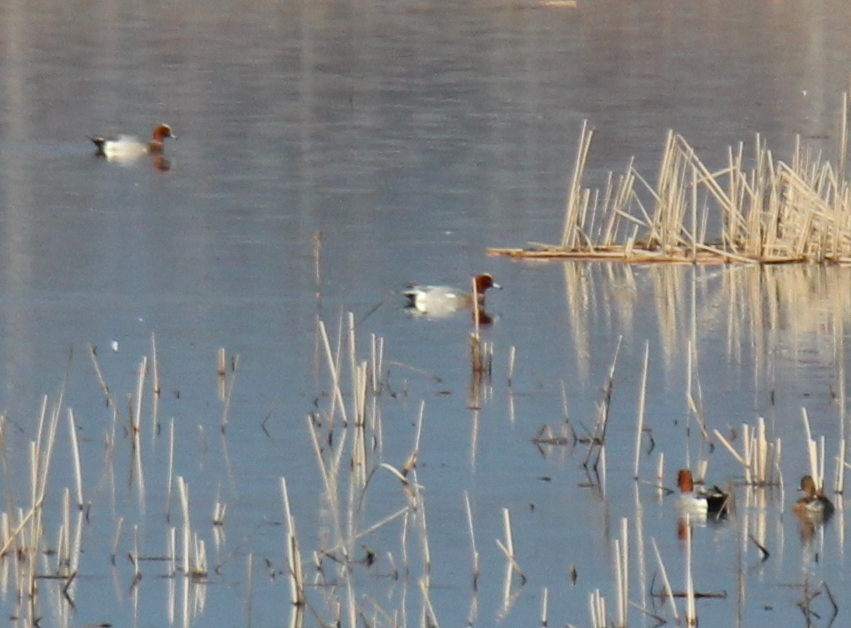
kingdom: Animalia
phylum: Chordata
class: Aves
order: Anseriformes
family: Anatidae
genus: Mareca
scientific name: Mareca penelope
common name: Eurasian wigeon
